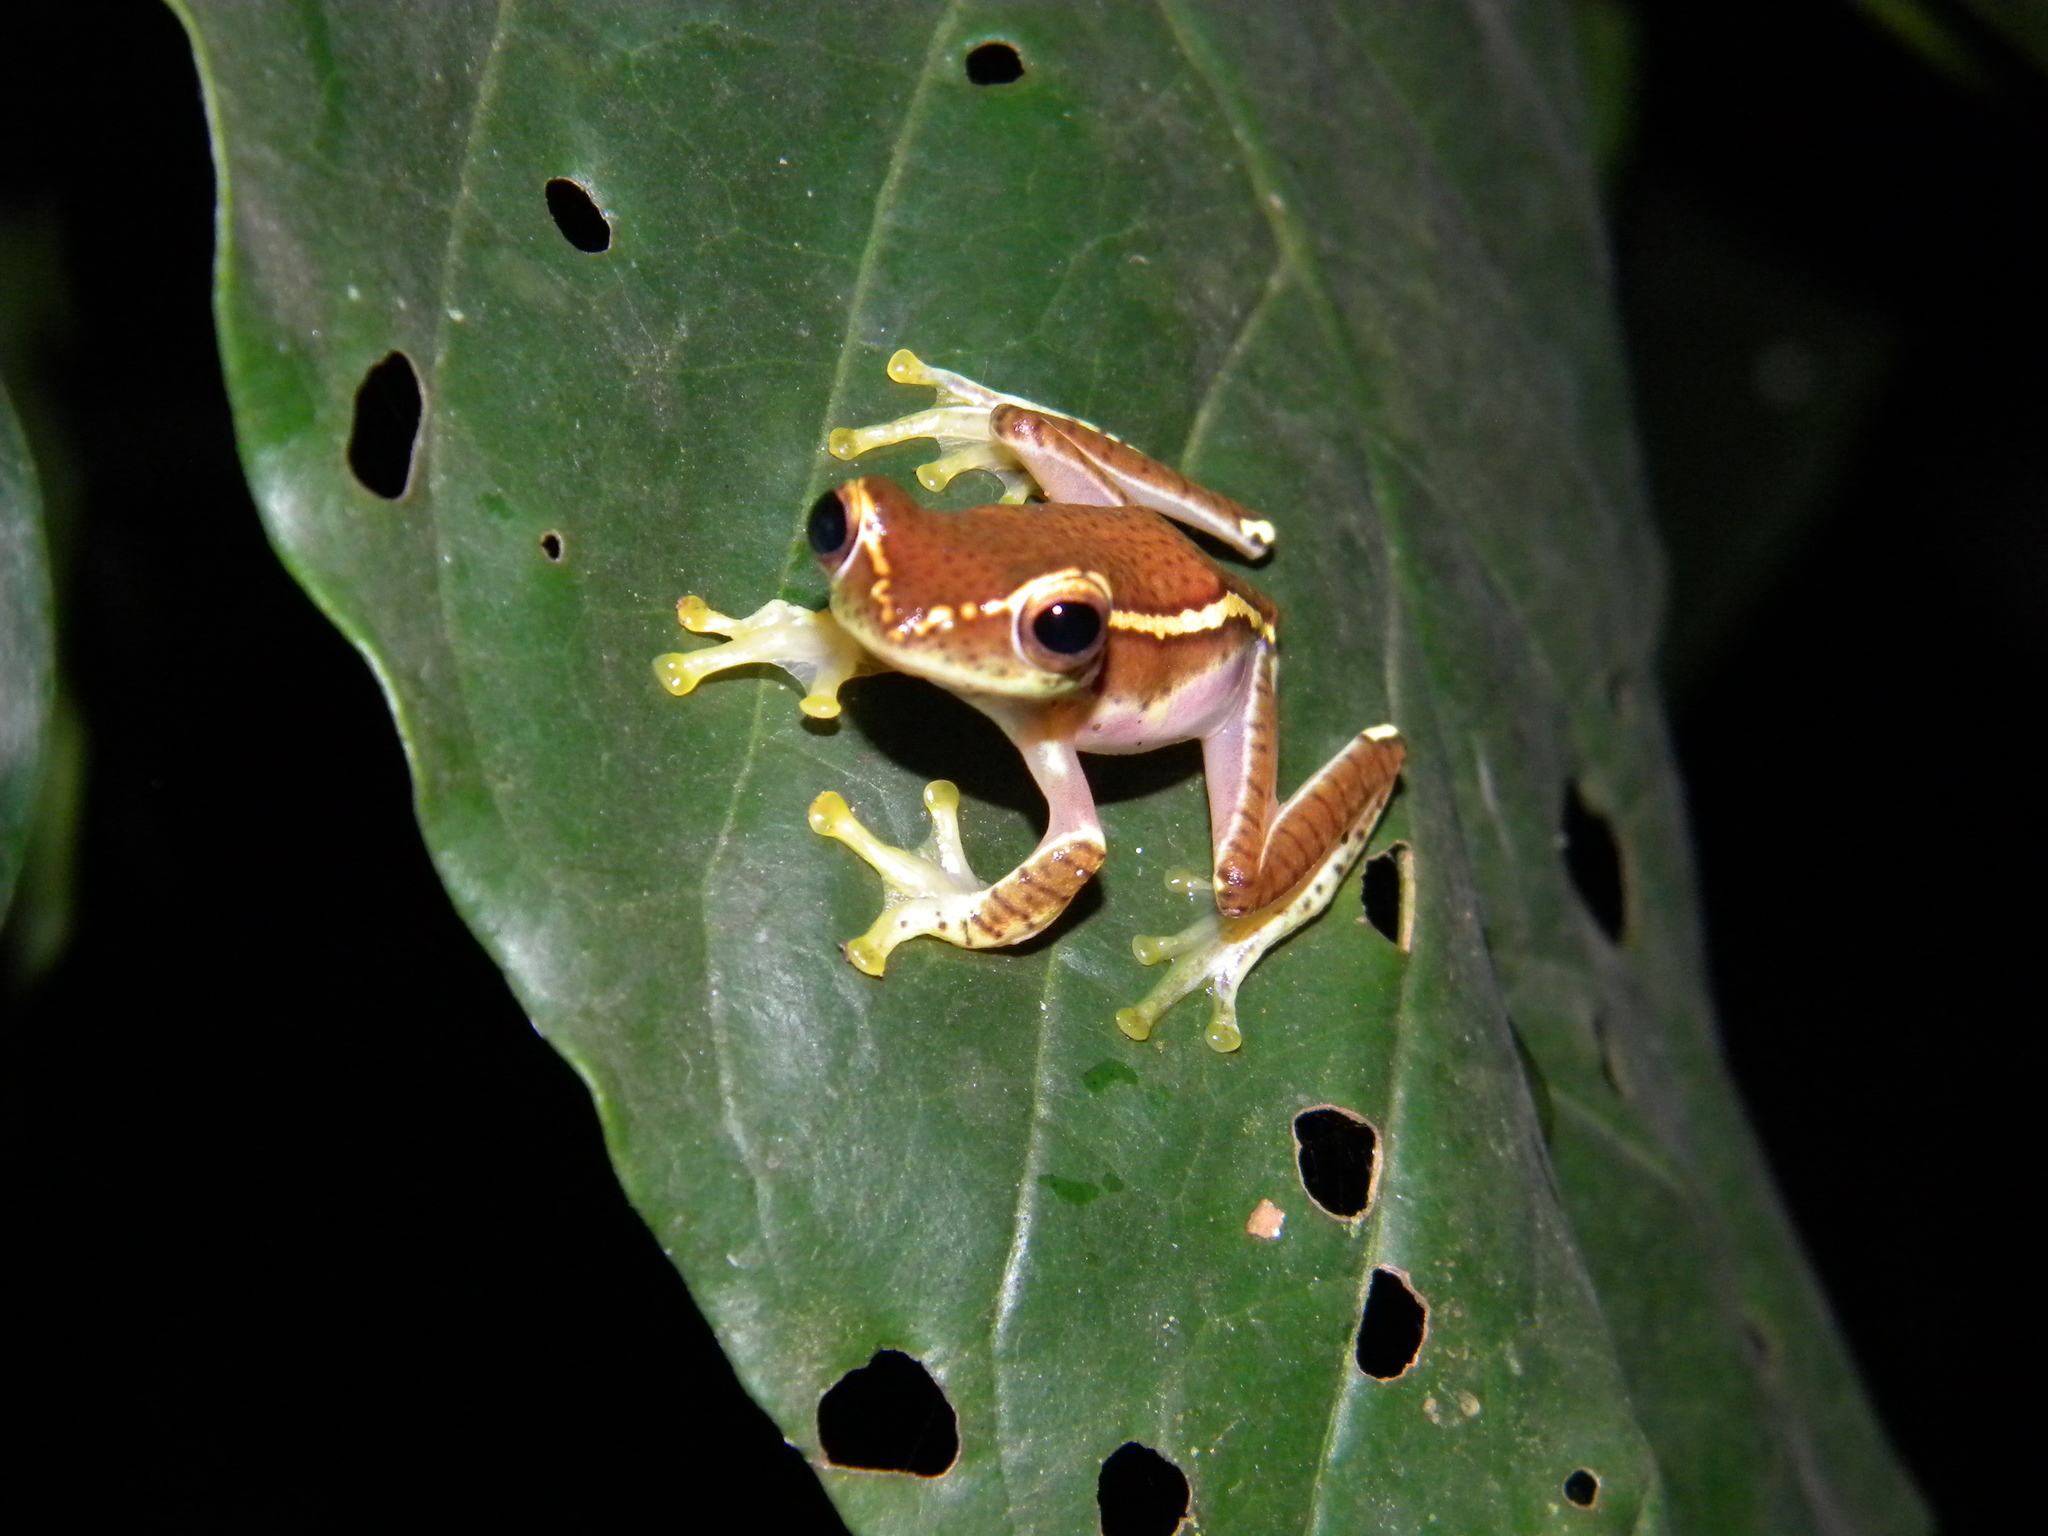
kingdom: Animalia
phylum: Chordata
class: Amphibia
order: Anura
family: Rhacophoridae
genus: Rhacophorus
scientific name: Rhacophorus lateralis
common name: Boulenger's tree frog
